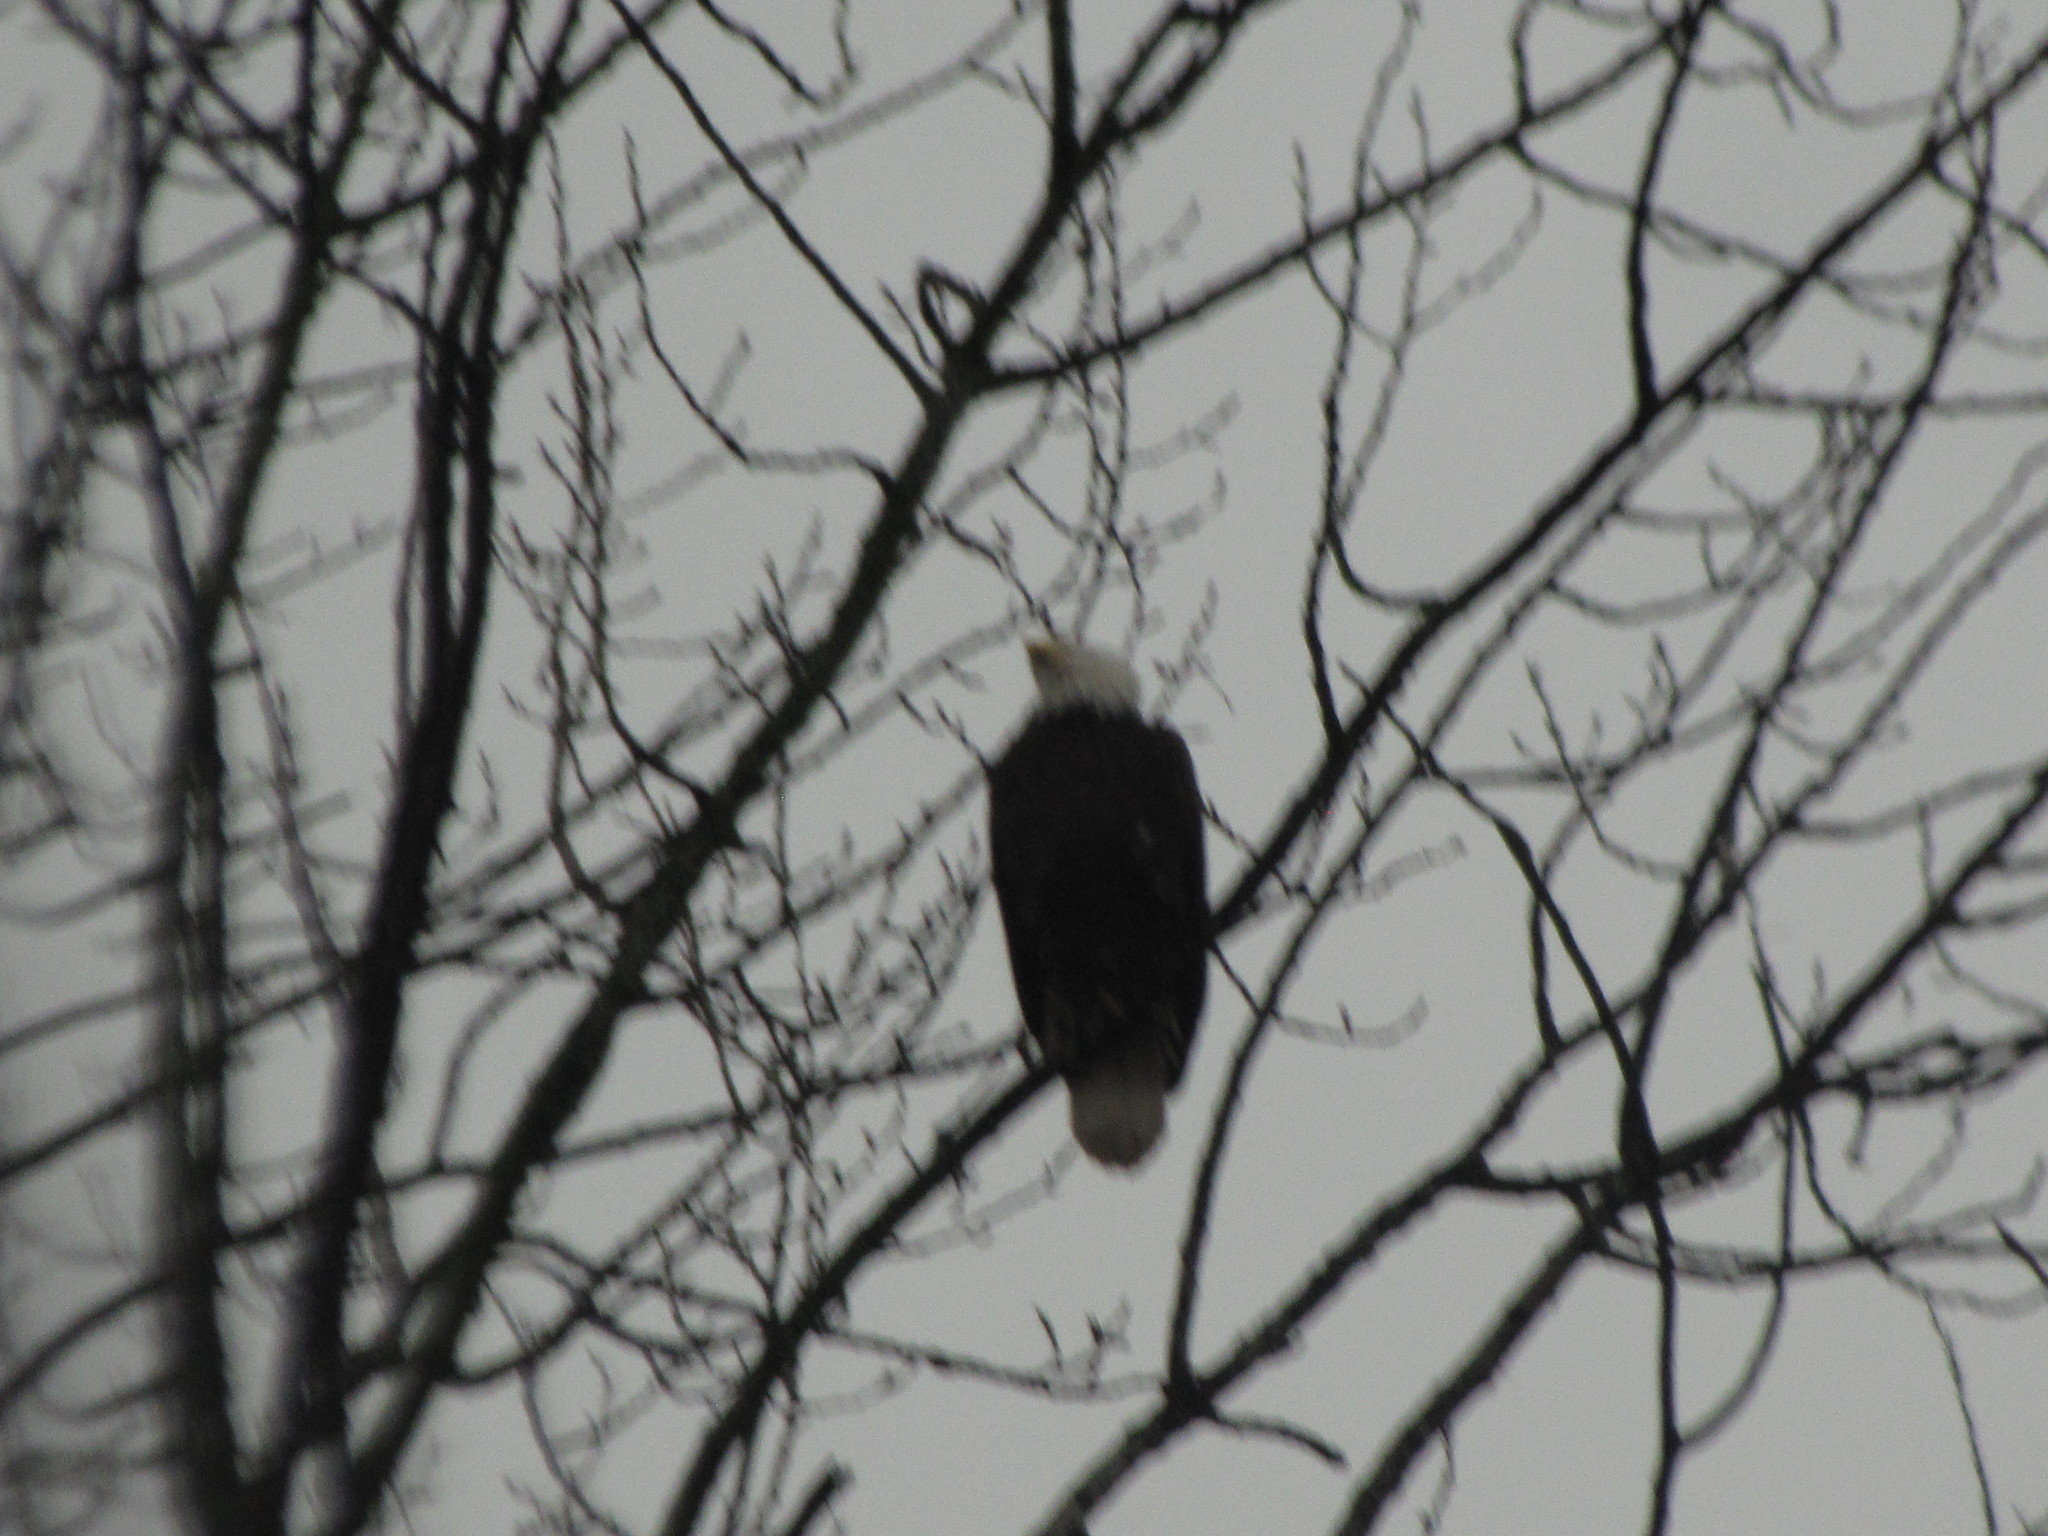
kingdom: Animalia
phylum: Chordata
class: Aves
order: Accipitriformes
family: Accipitridae
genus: Haliaeetus
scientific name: Haliaeetus leucocephalus
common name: Bald eagle
